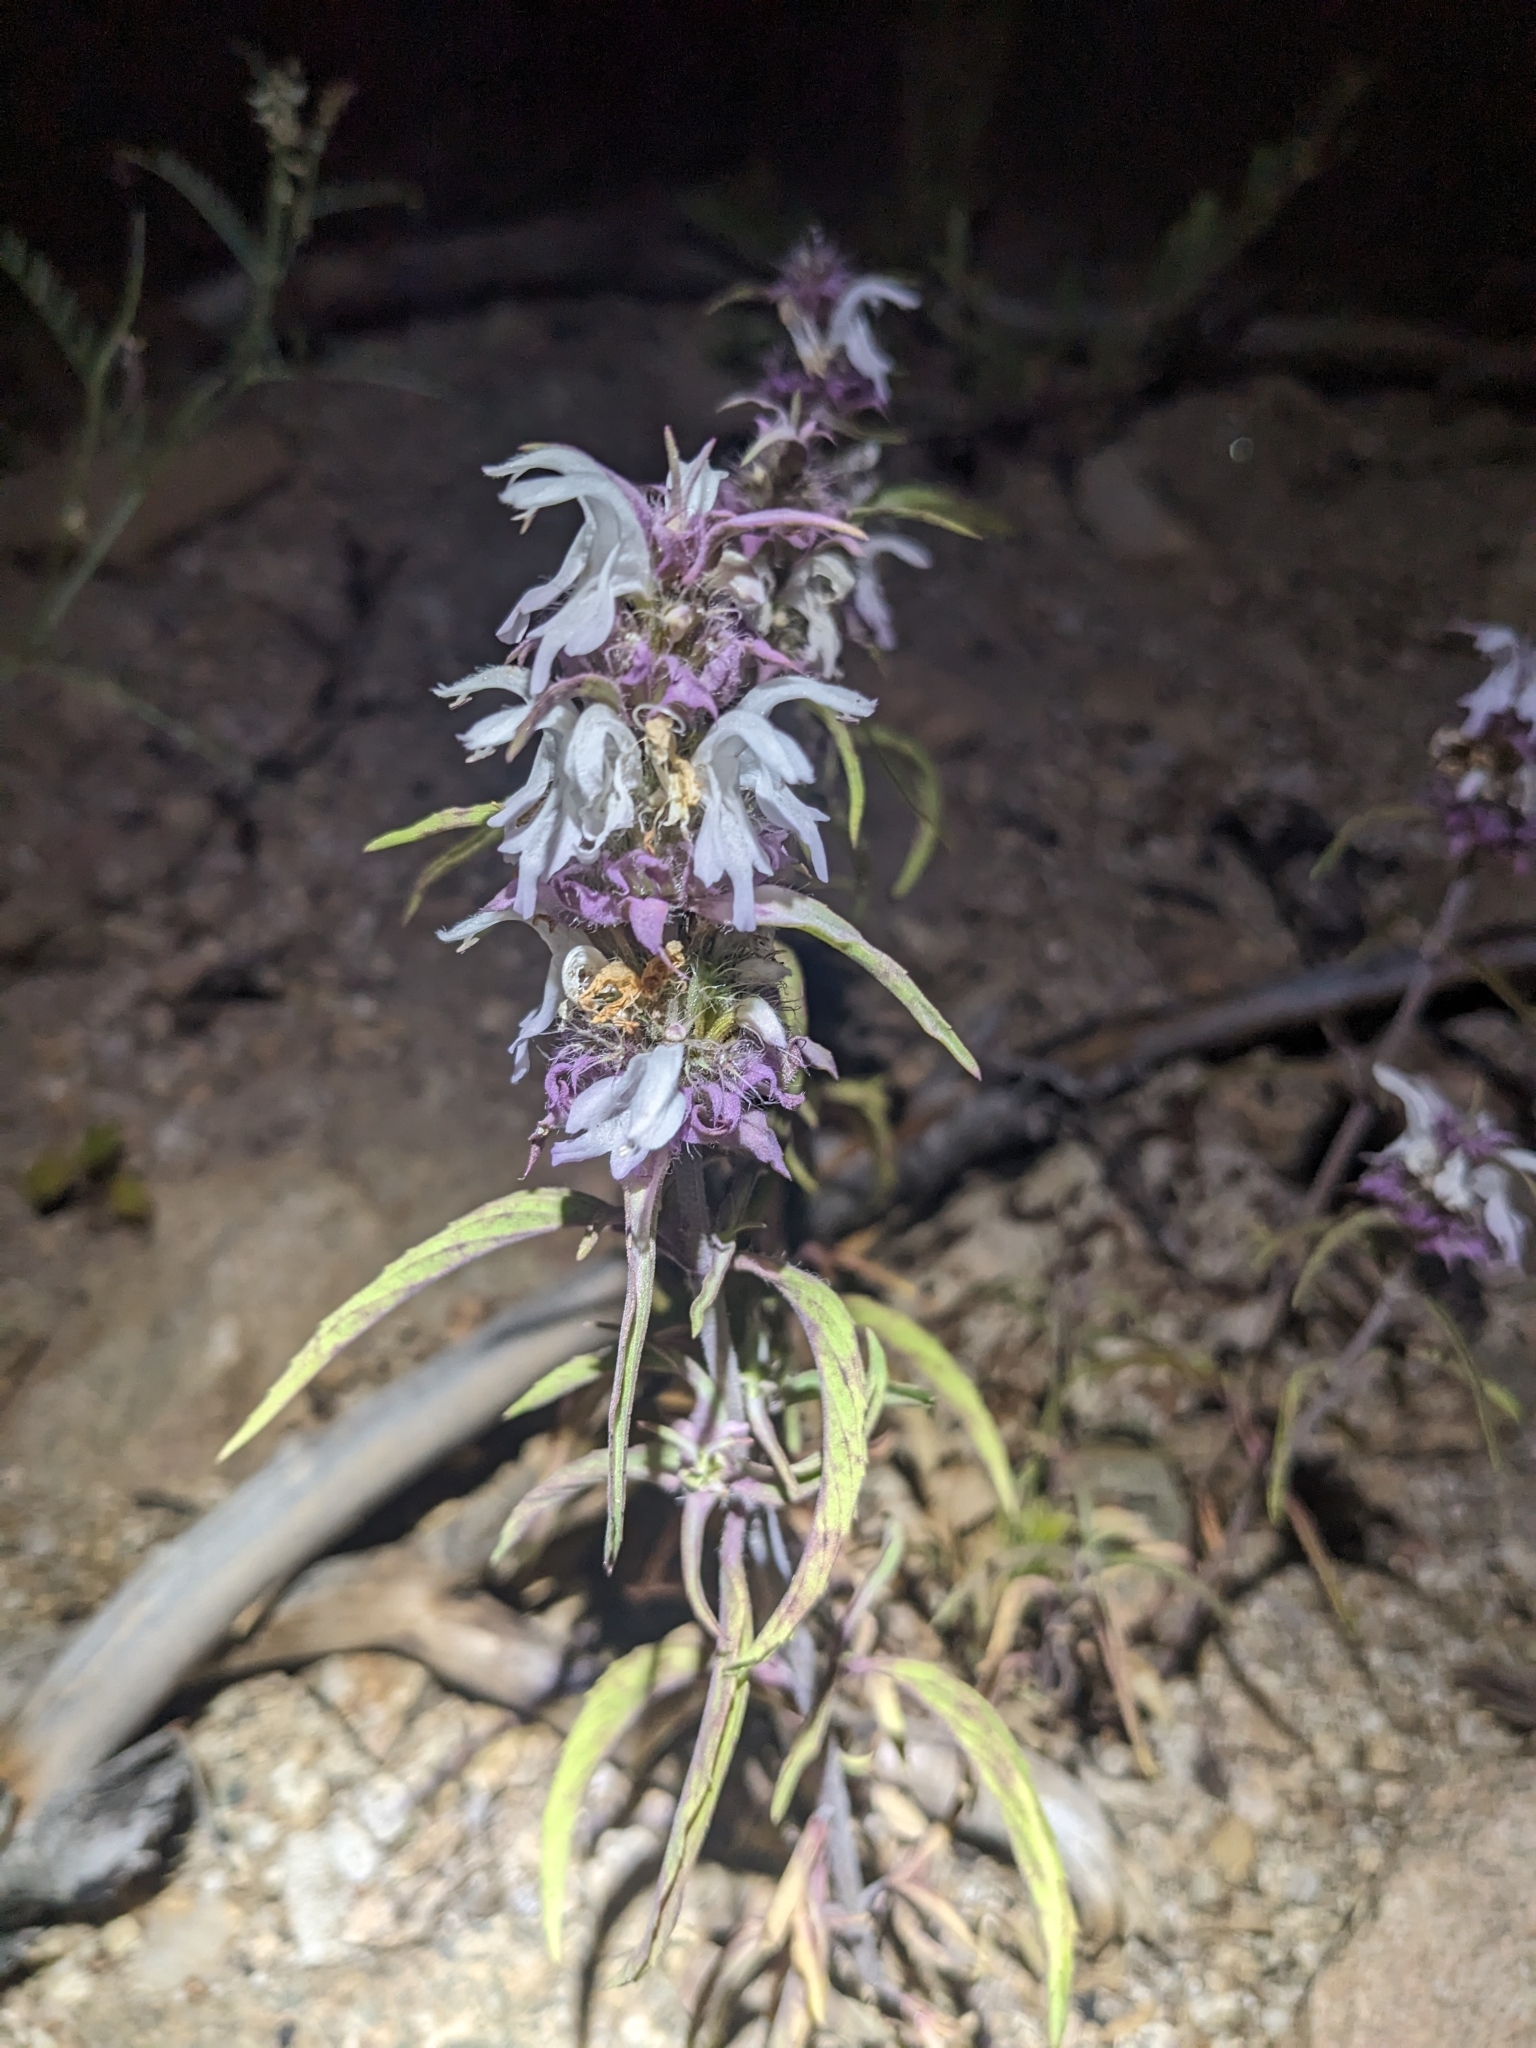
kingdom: Plantae
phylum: Tracheophyta
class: Magnoliopsida
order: Lamiales
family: Lamiaceae
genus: Monarda
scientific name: Monarda citriodora
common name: Lemon beebalm
